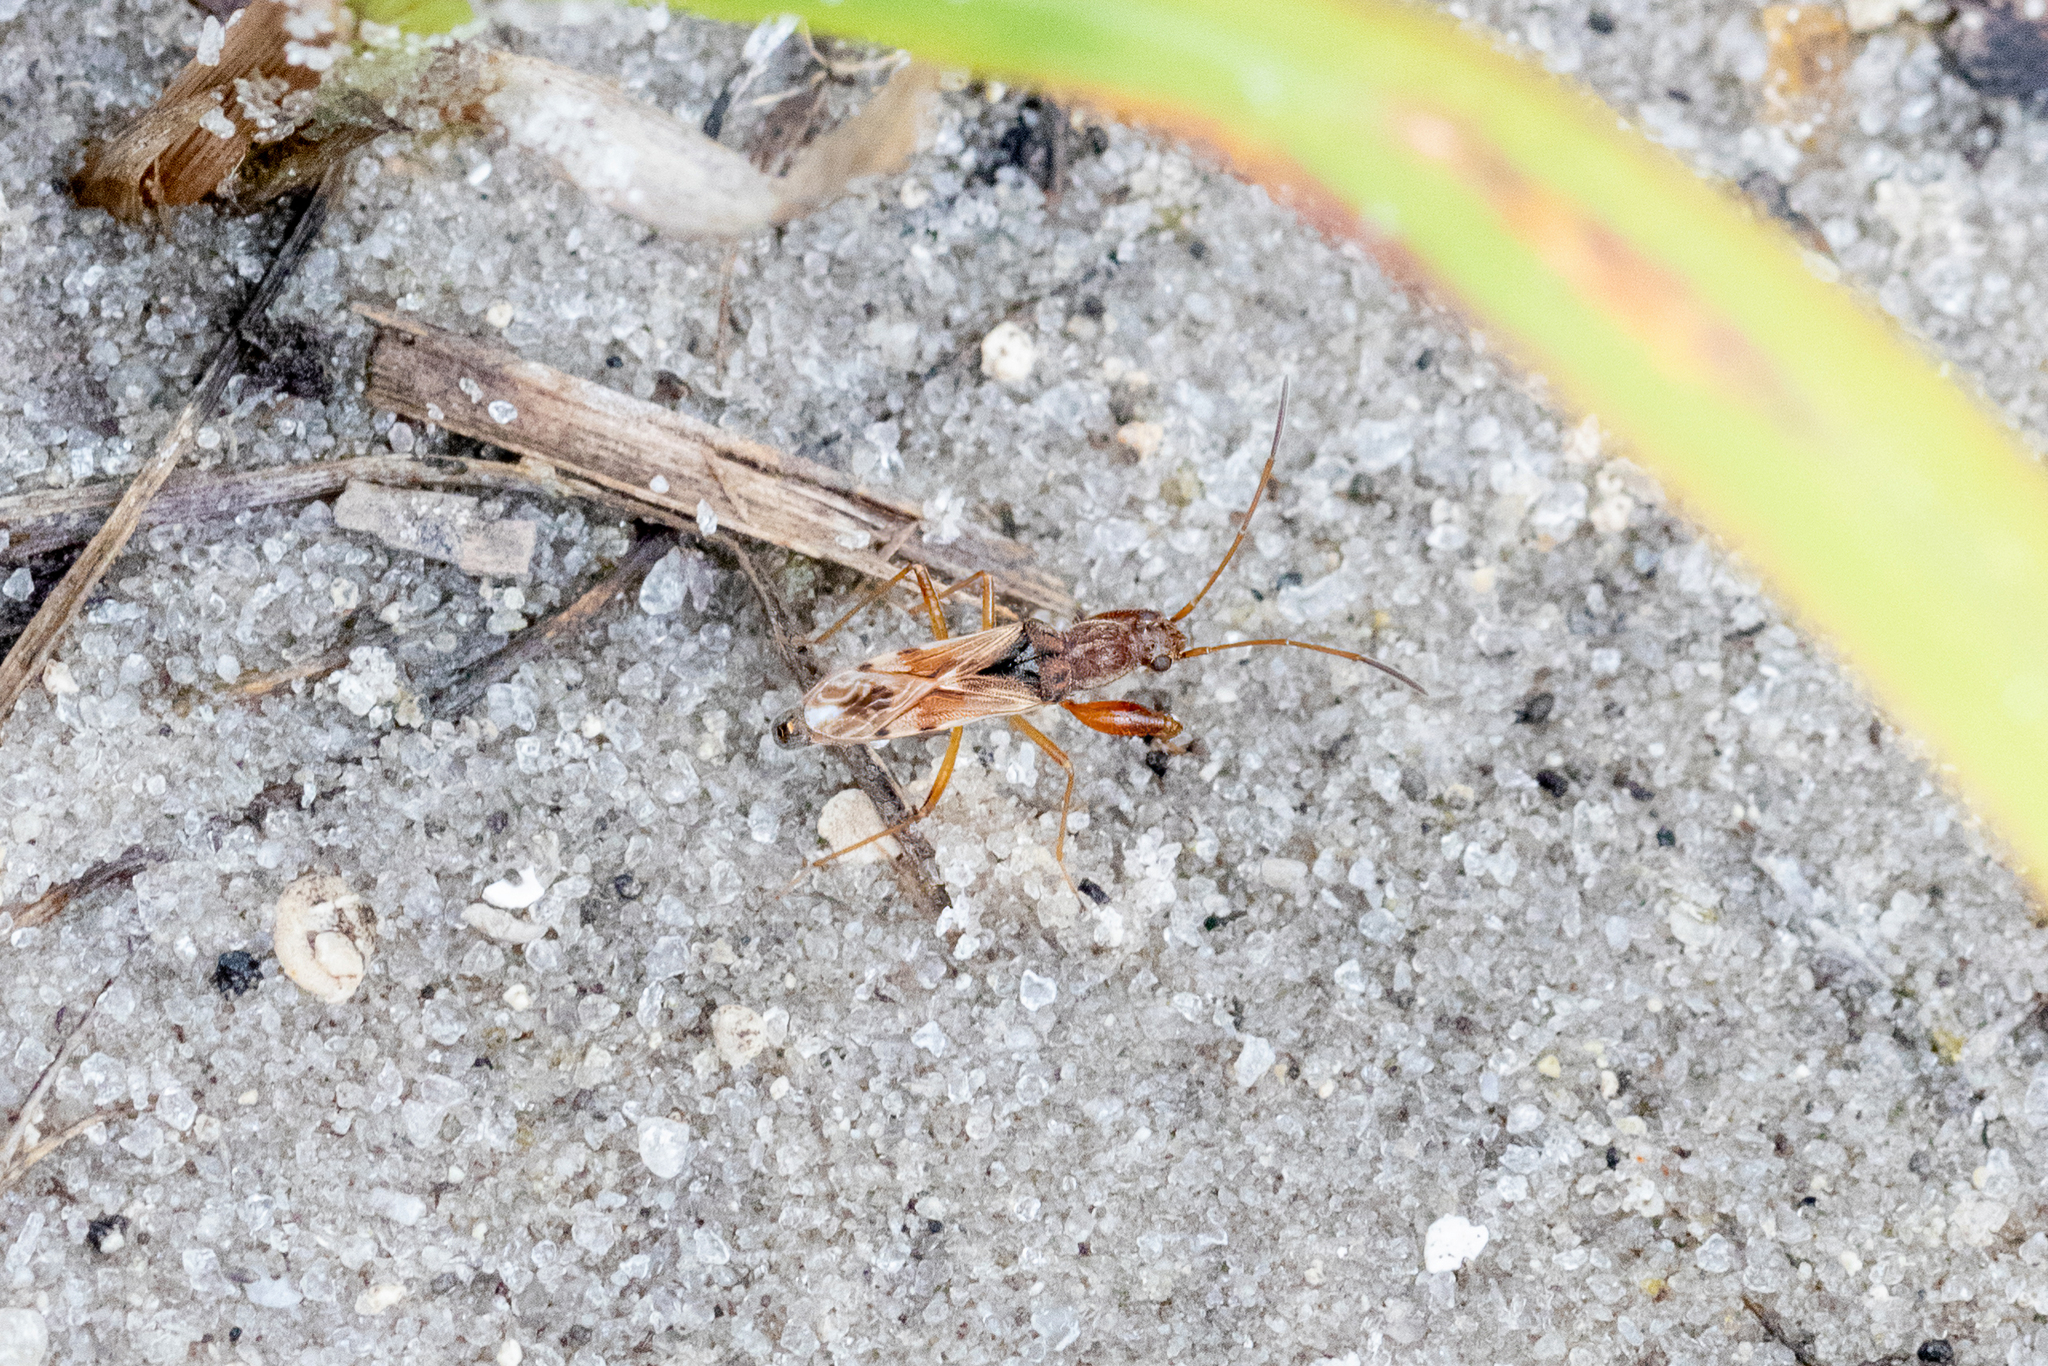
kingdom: Animalia
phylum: Arthropoda
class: Insecta
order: Hemiptera
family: Rhyparochromidae
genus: Neopamera
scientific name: Neopamera bilobata
